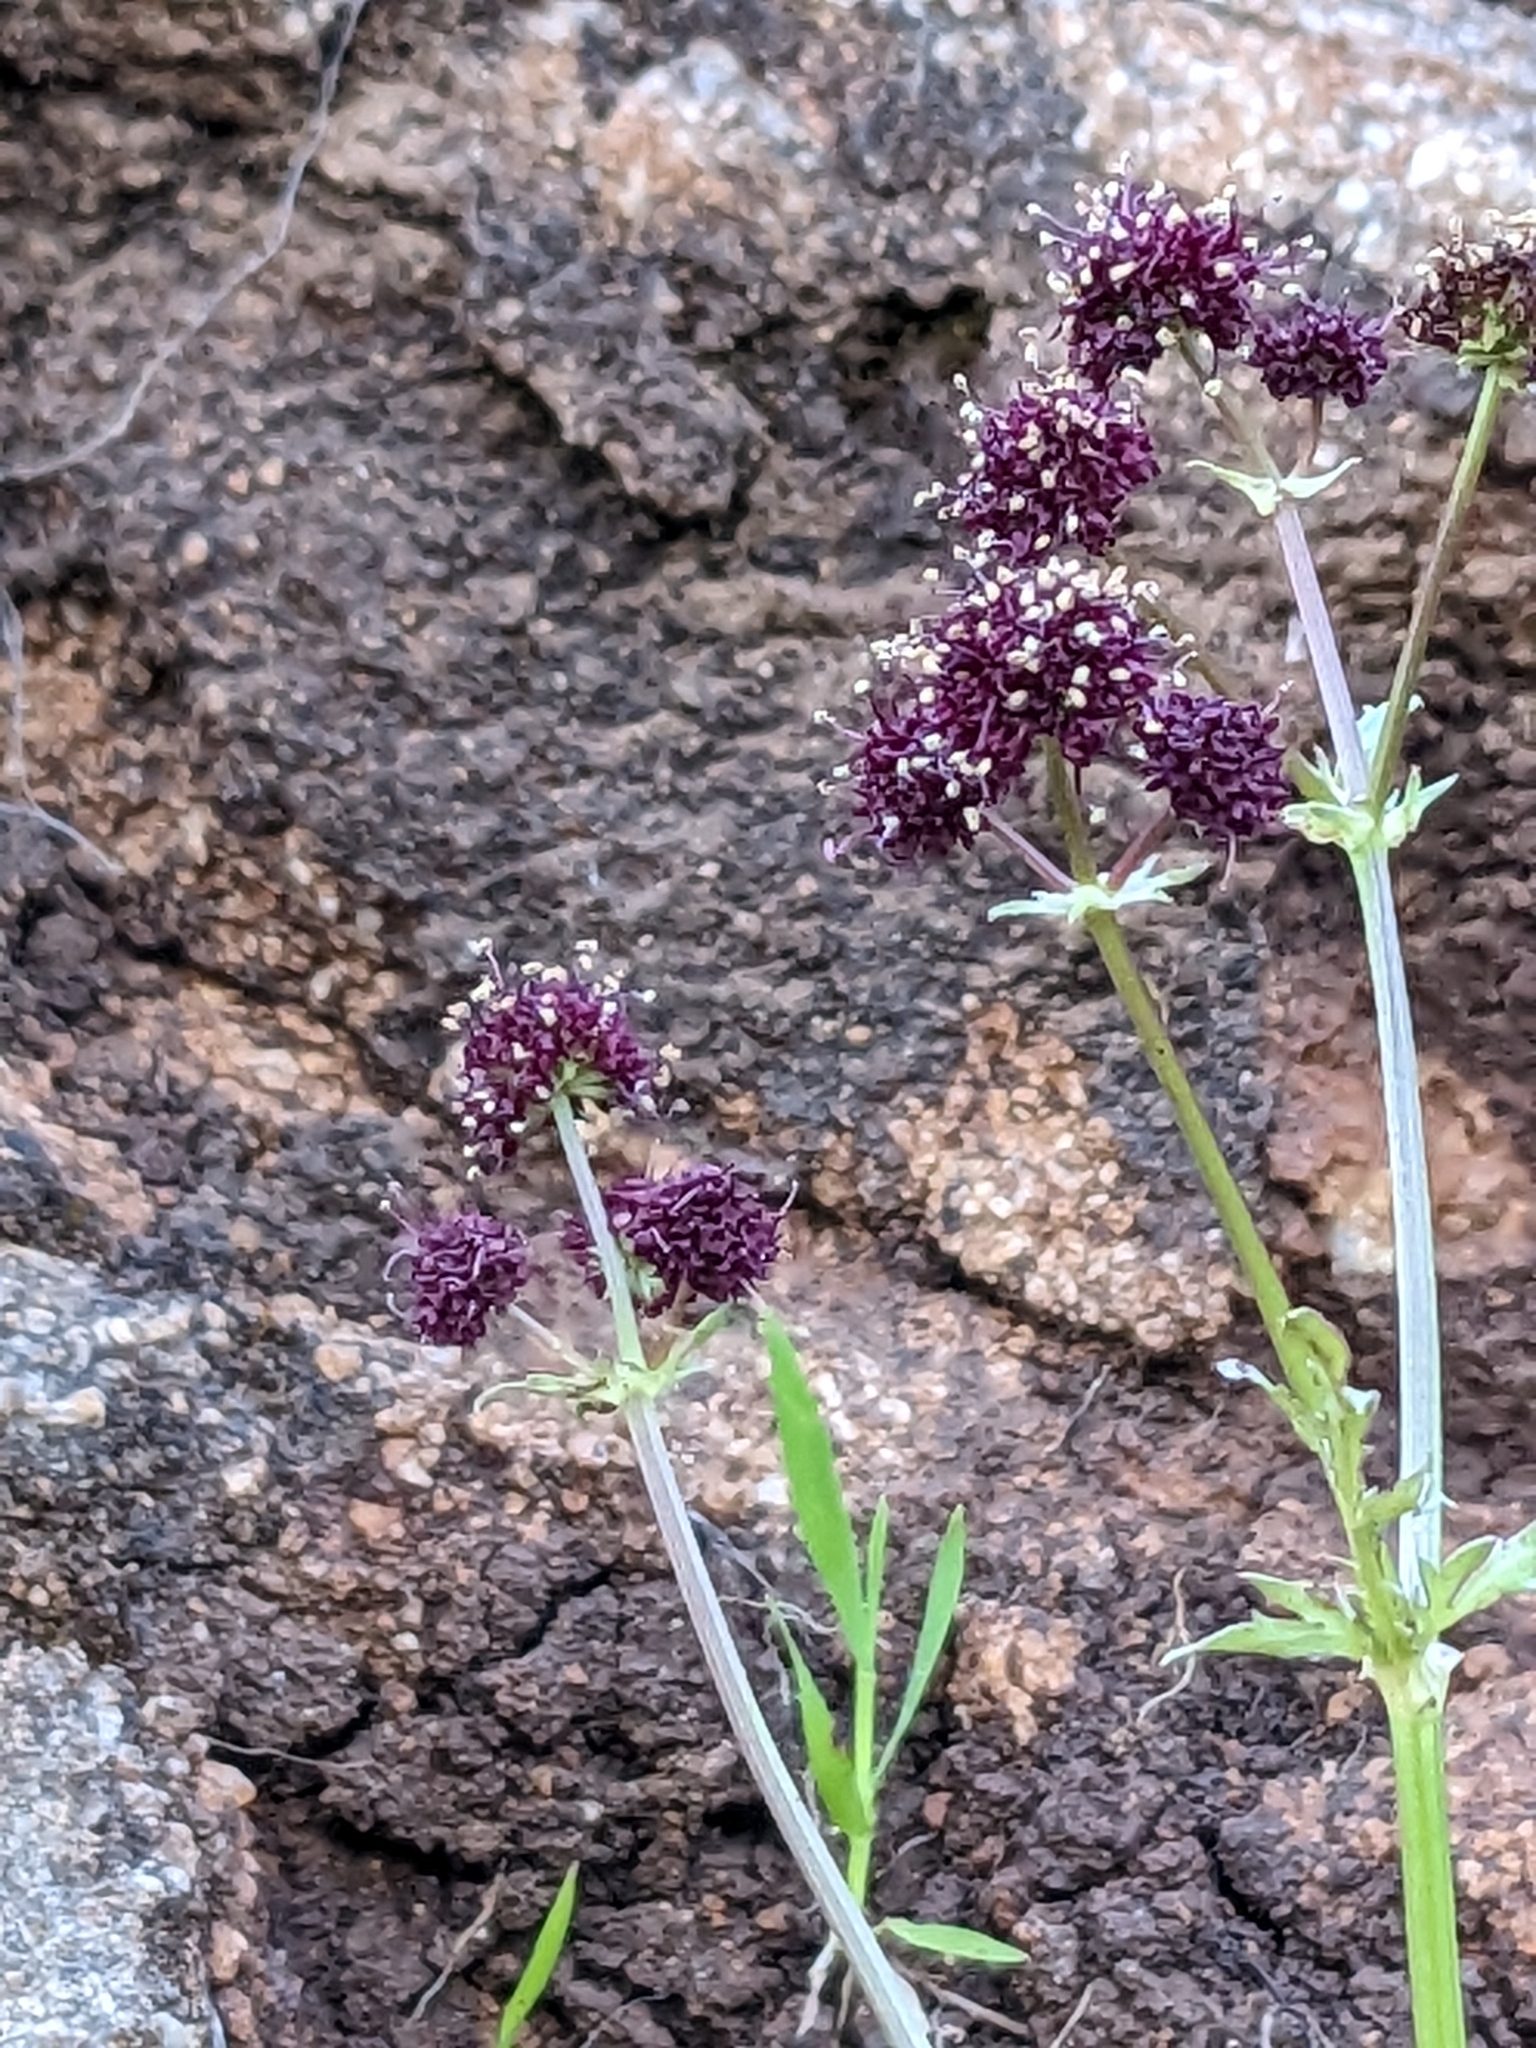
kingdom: Plantae
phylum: Tracheophyta
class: Magnoliopsida
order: Apiales
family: Apiaceae
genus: Sanicula
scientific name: Sanicula bipinnatifida
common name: Shoe-buttons
